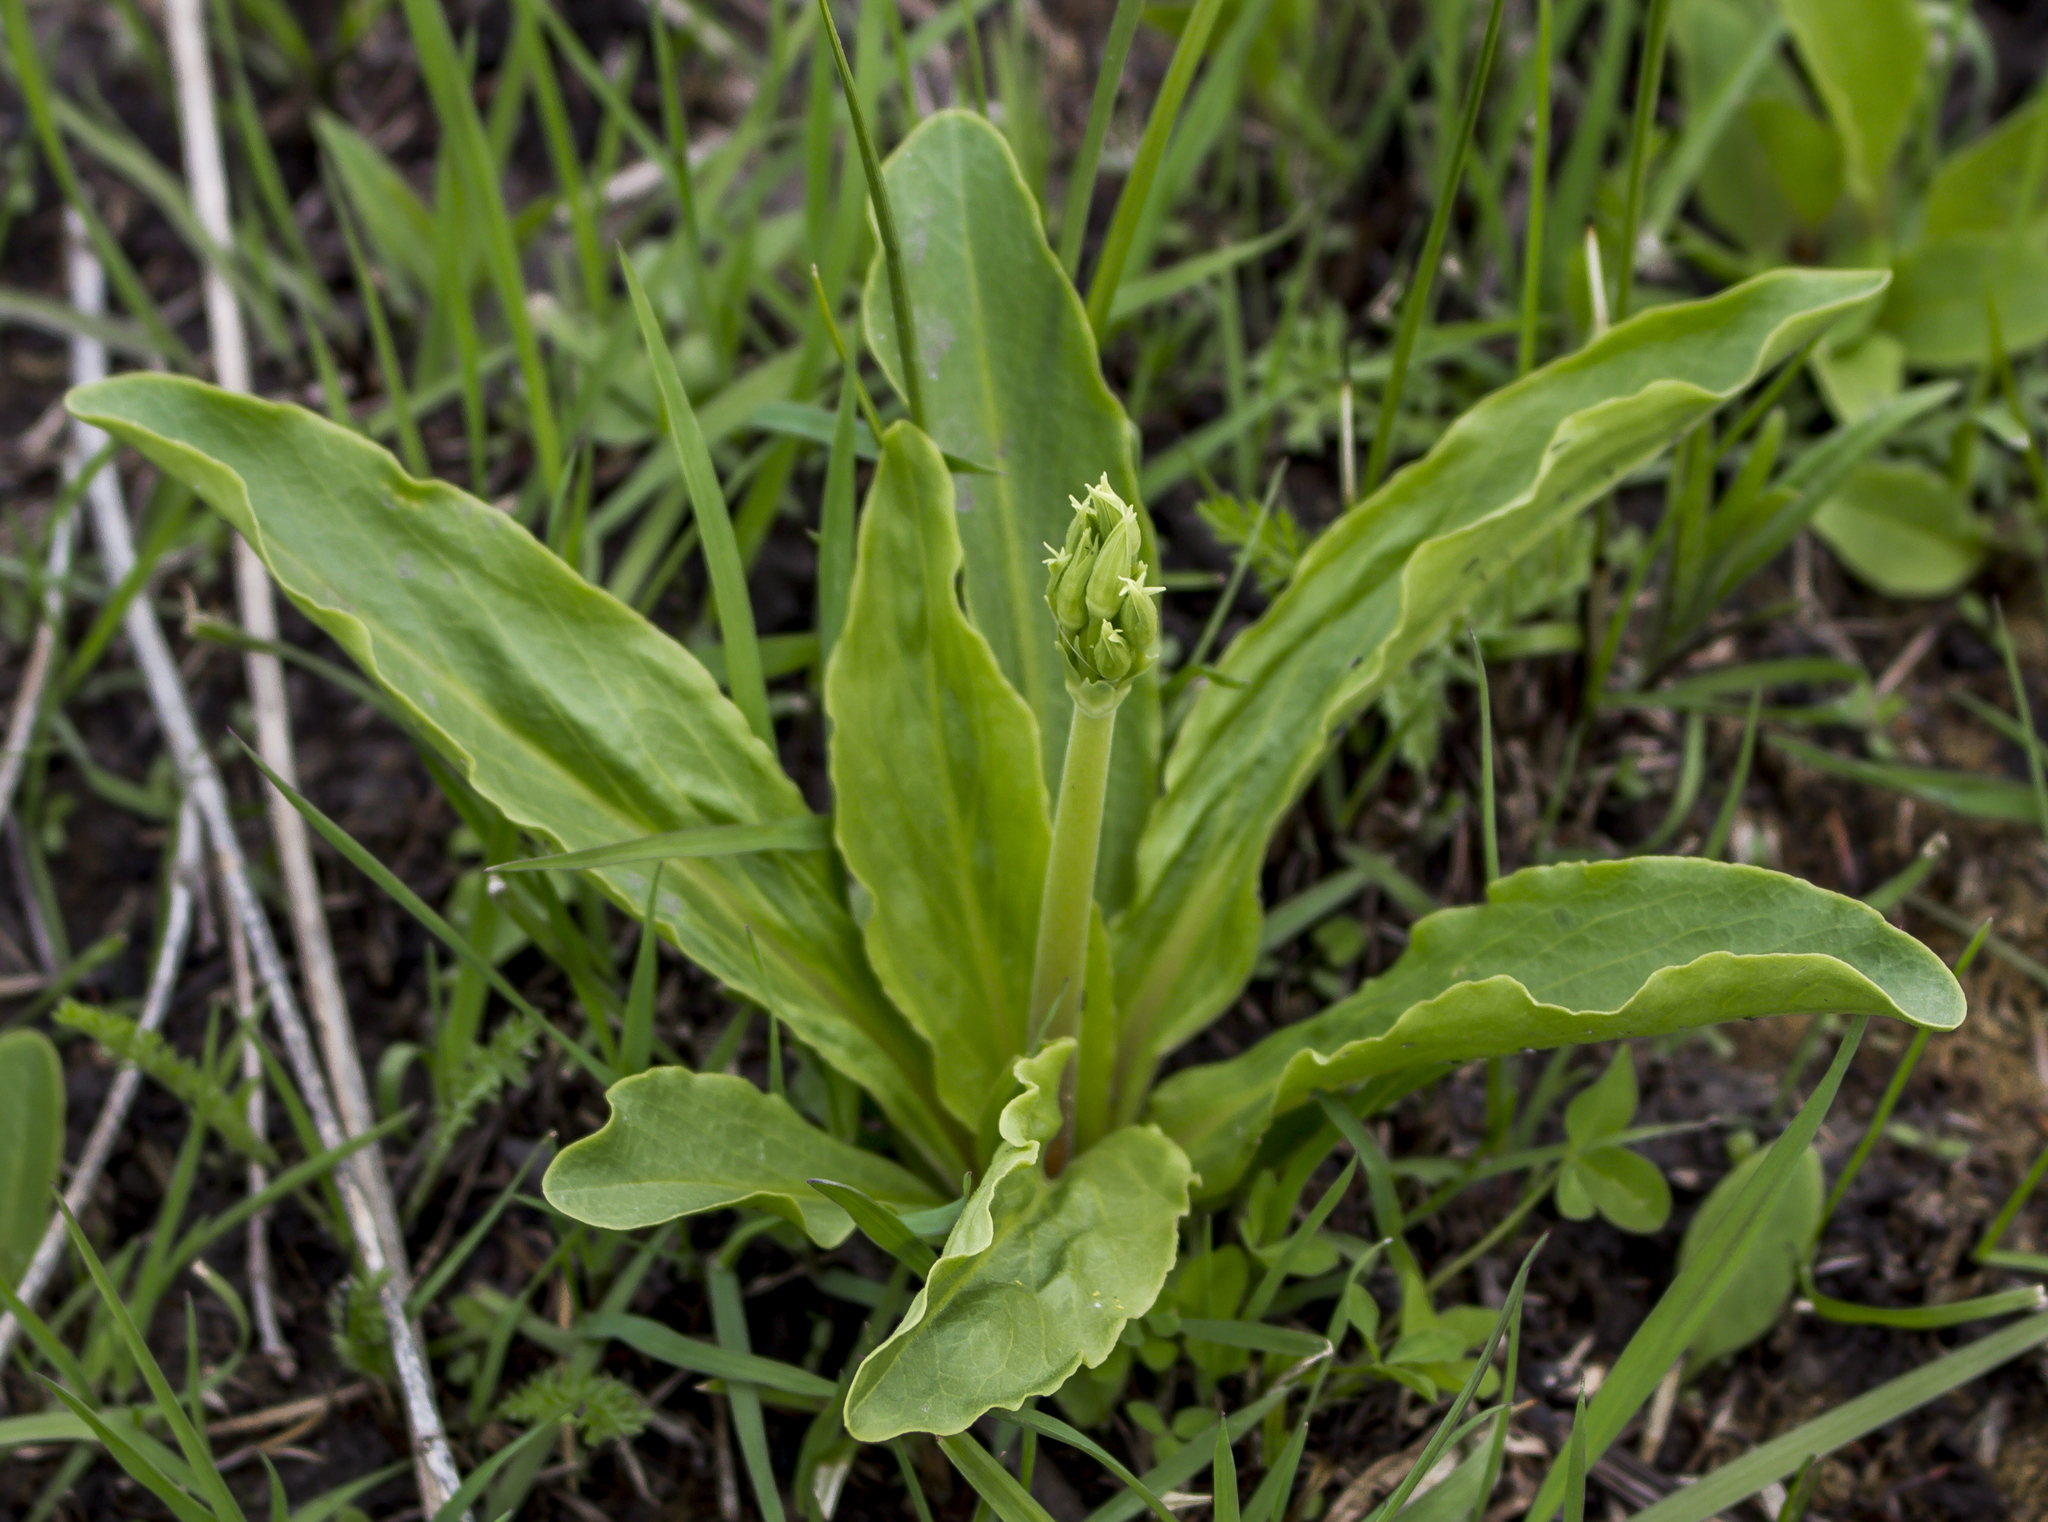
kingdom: Plantae
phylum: Tracheophyta
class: Magnoliopsida
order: Ericales
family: Primulaceae
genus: Dodecatheon
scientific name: Dodecatheon meadia
